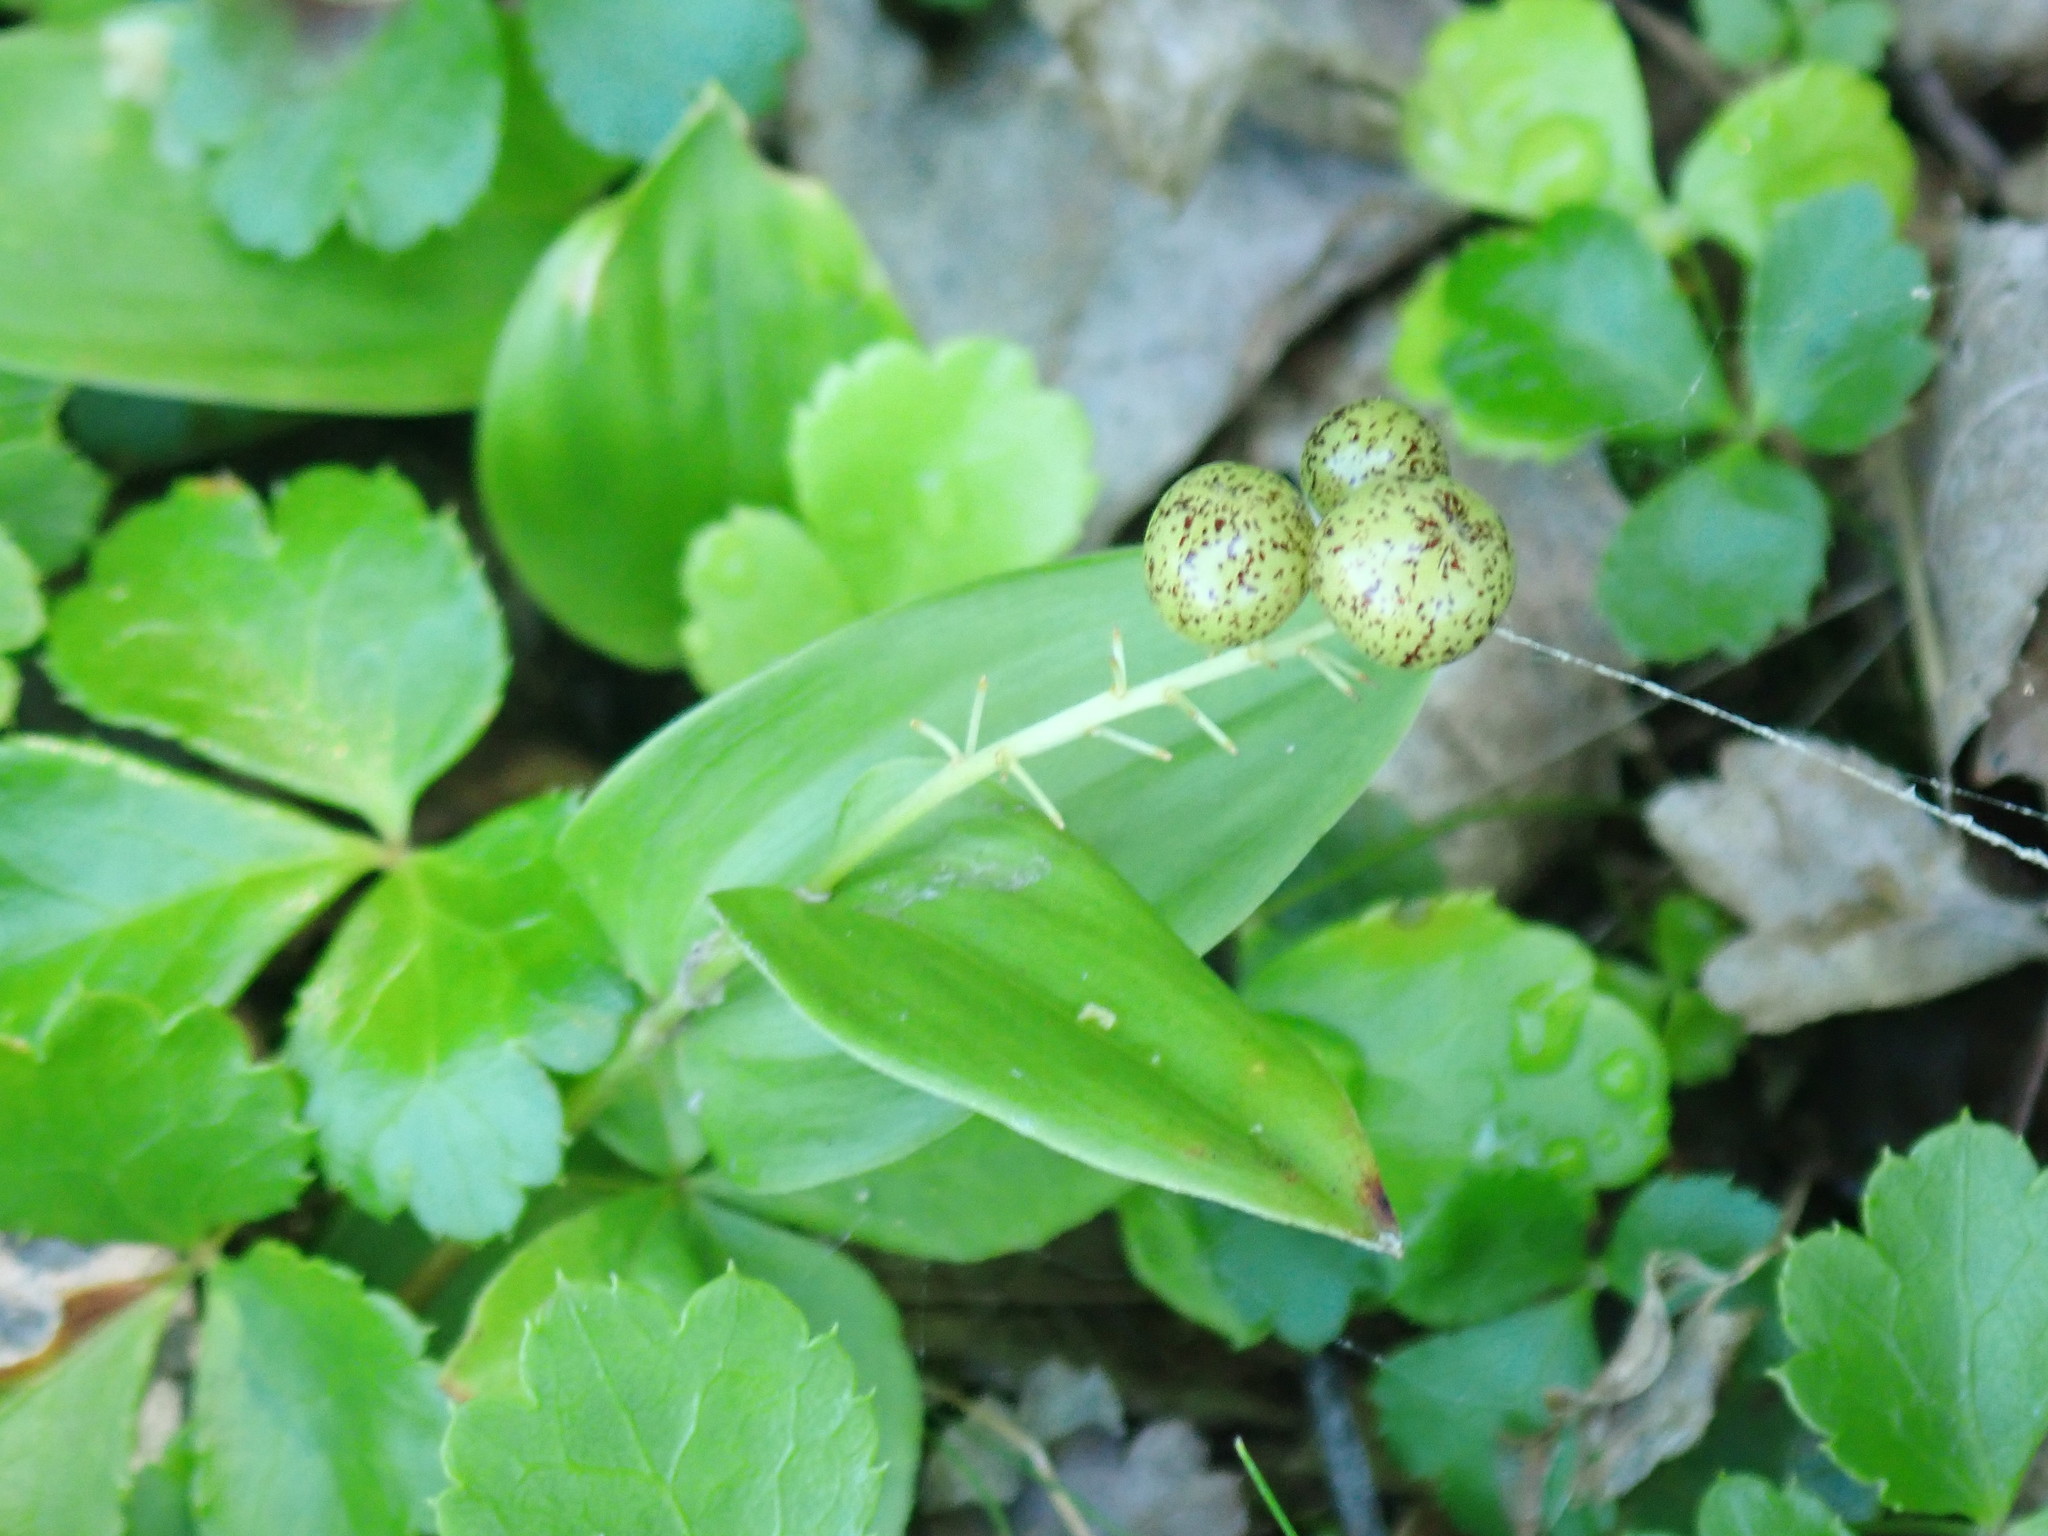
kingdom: Plantae
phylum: Tracheophyta
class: Liliopsida
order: Asparagales
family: Asparagaceae
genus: Maianthemum
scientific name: Maianthemum canadense
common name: False lily-of-the-valley
